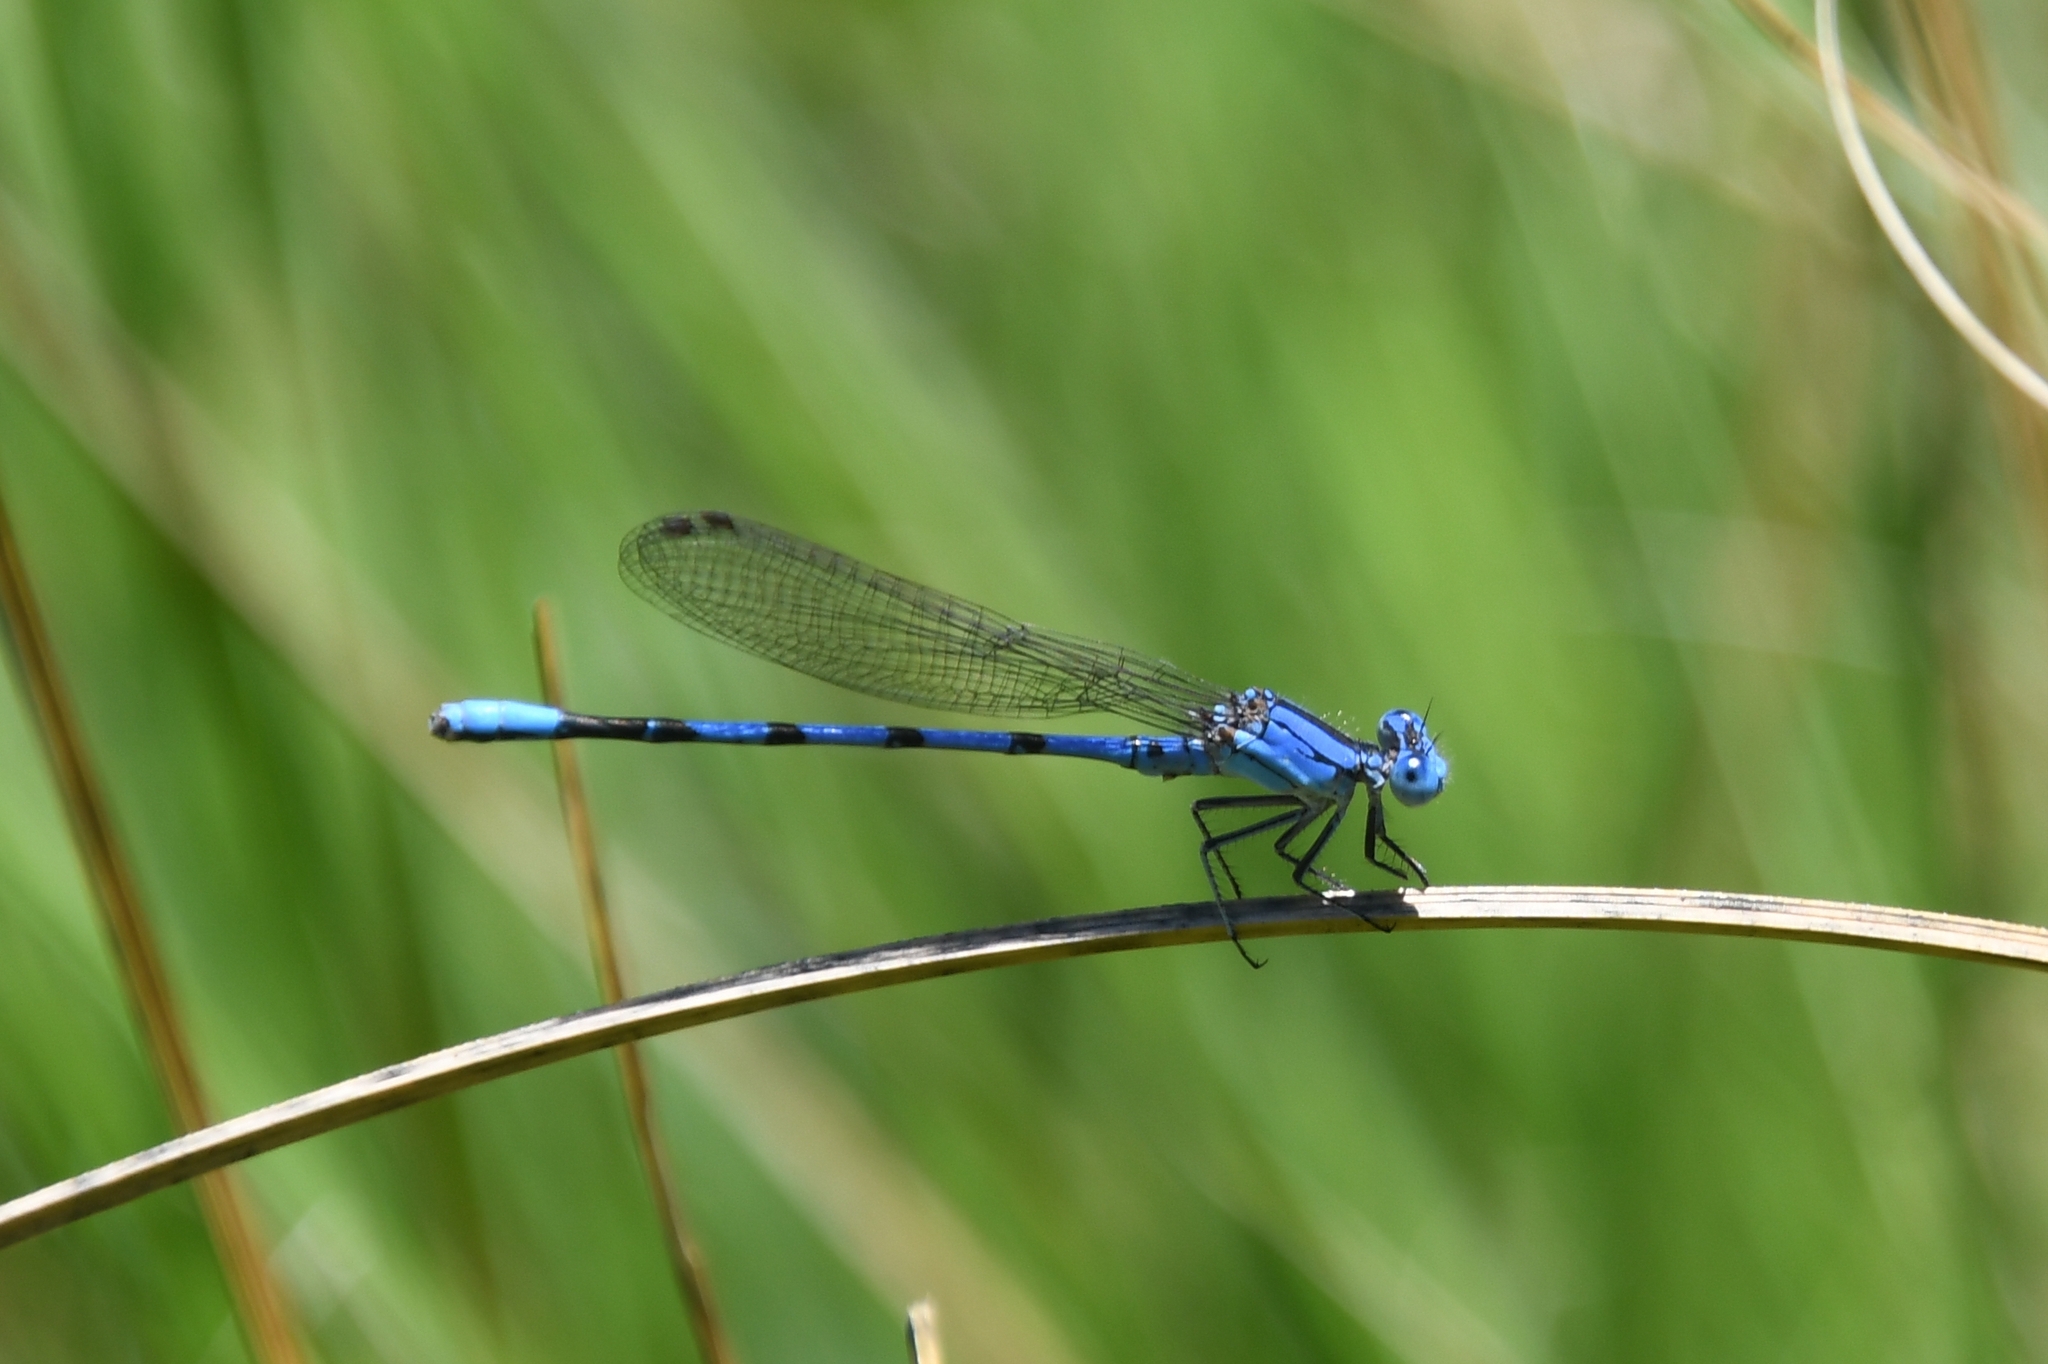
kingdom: Animalia
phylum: Arthropoda
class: Insecta
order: Odonata
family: Coenagrionidae
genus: Argia
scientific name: Argia nahuana
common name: Aztec dancer
